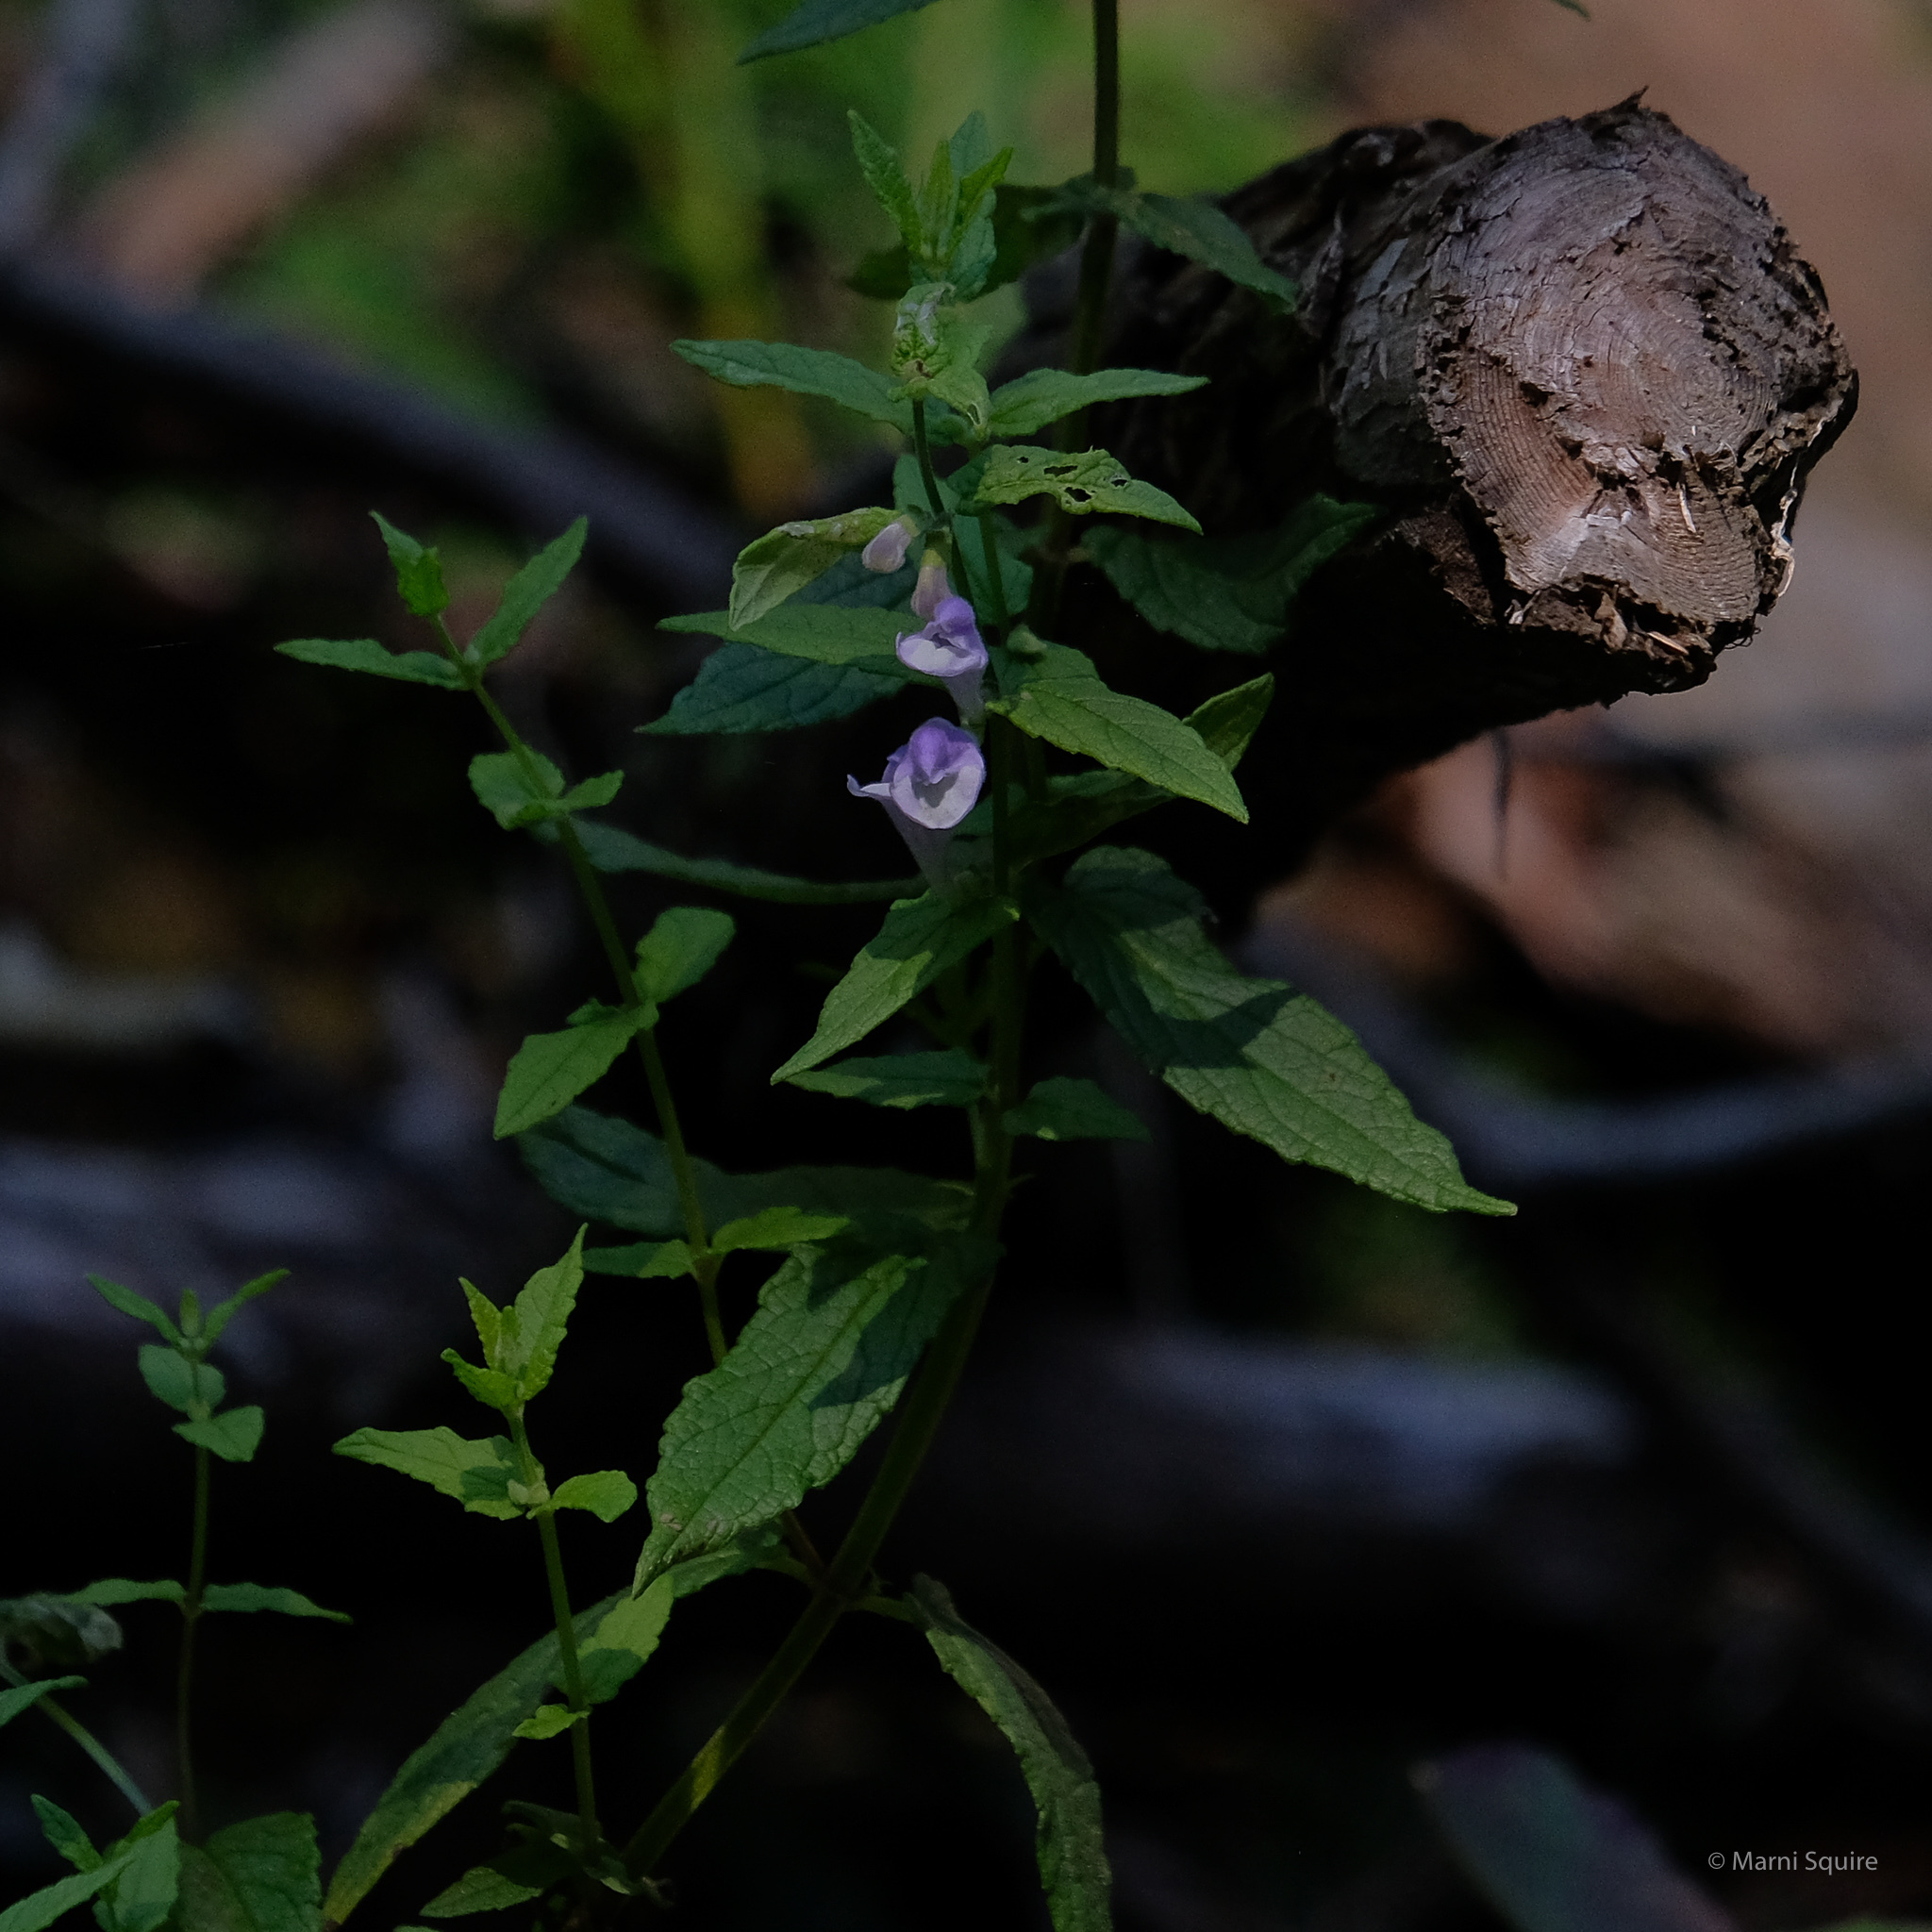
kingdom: Plantae
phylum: Tracheophyta
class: Magnoliopsida
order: Lamiales
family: Lamiaceae
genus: Scutellaria
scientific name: Scutellaria galericulata
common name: Skullcap
